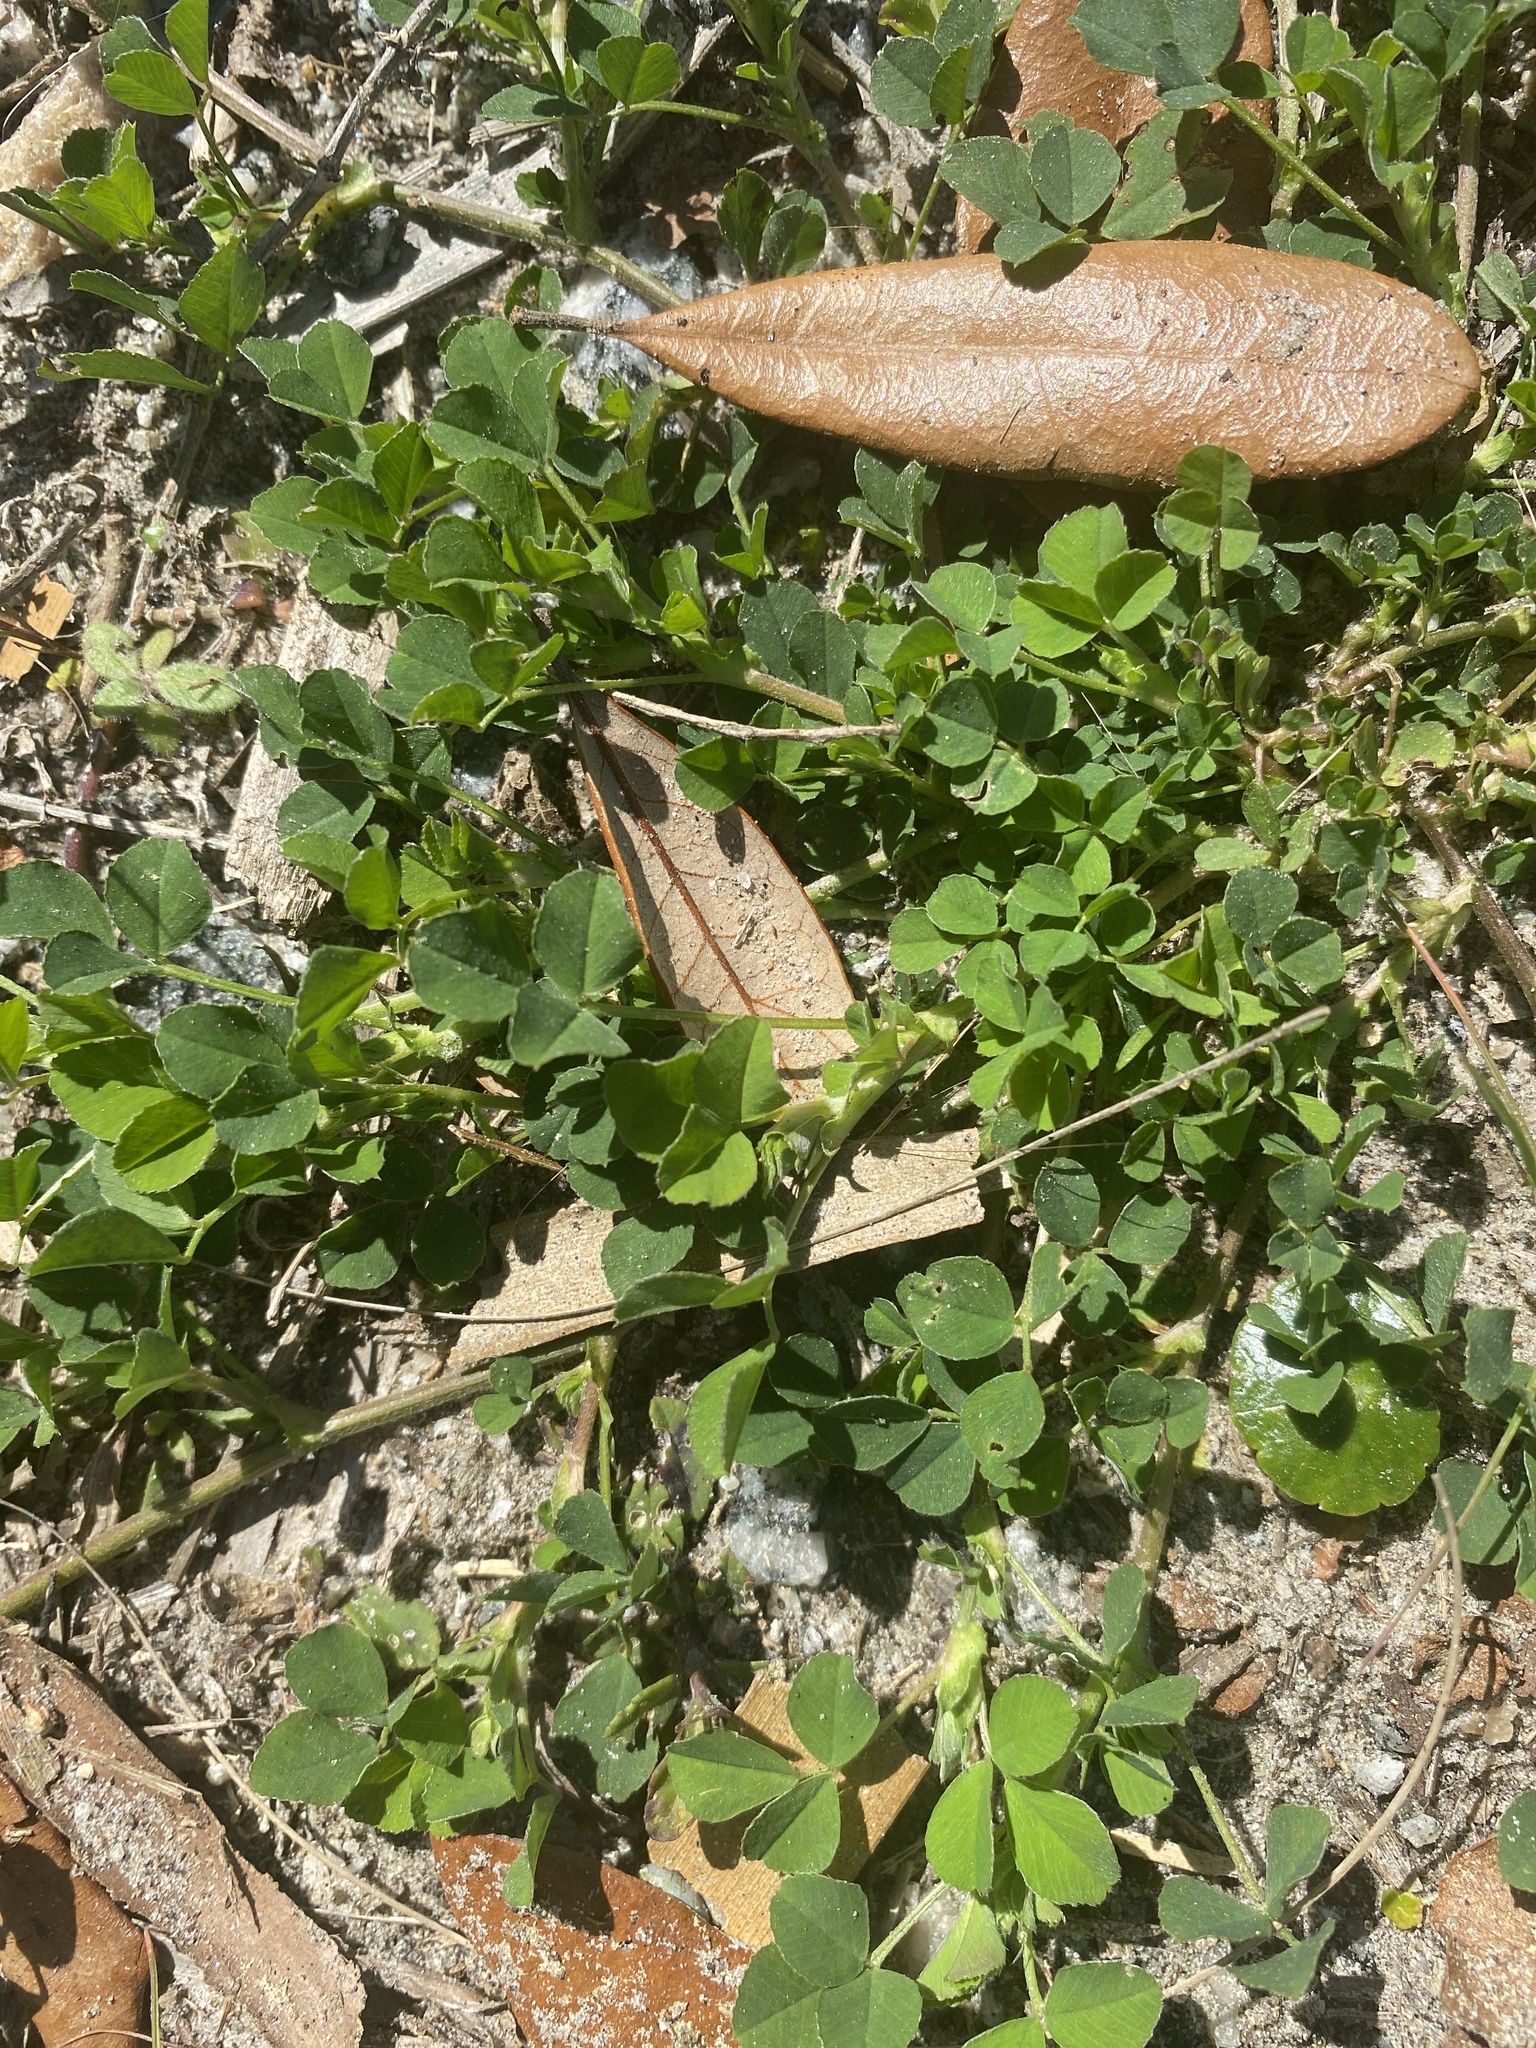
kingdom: Plantae
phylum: Tracheophyta
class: Magnoliopsida
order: Fabales
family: Fabaceae
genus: Medicago
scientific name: Medicago lupulina
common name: Black medick
